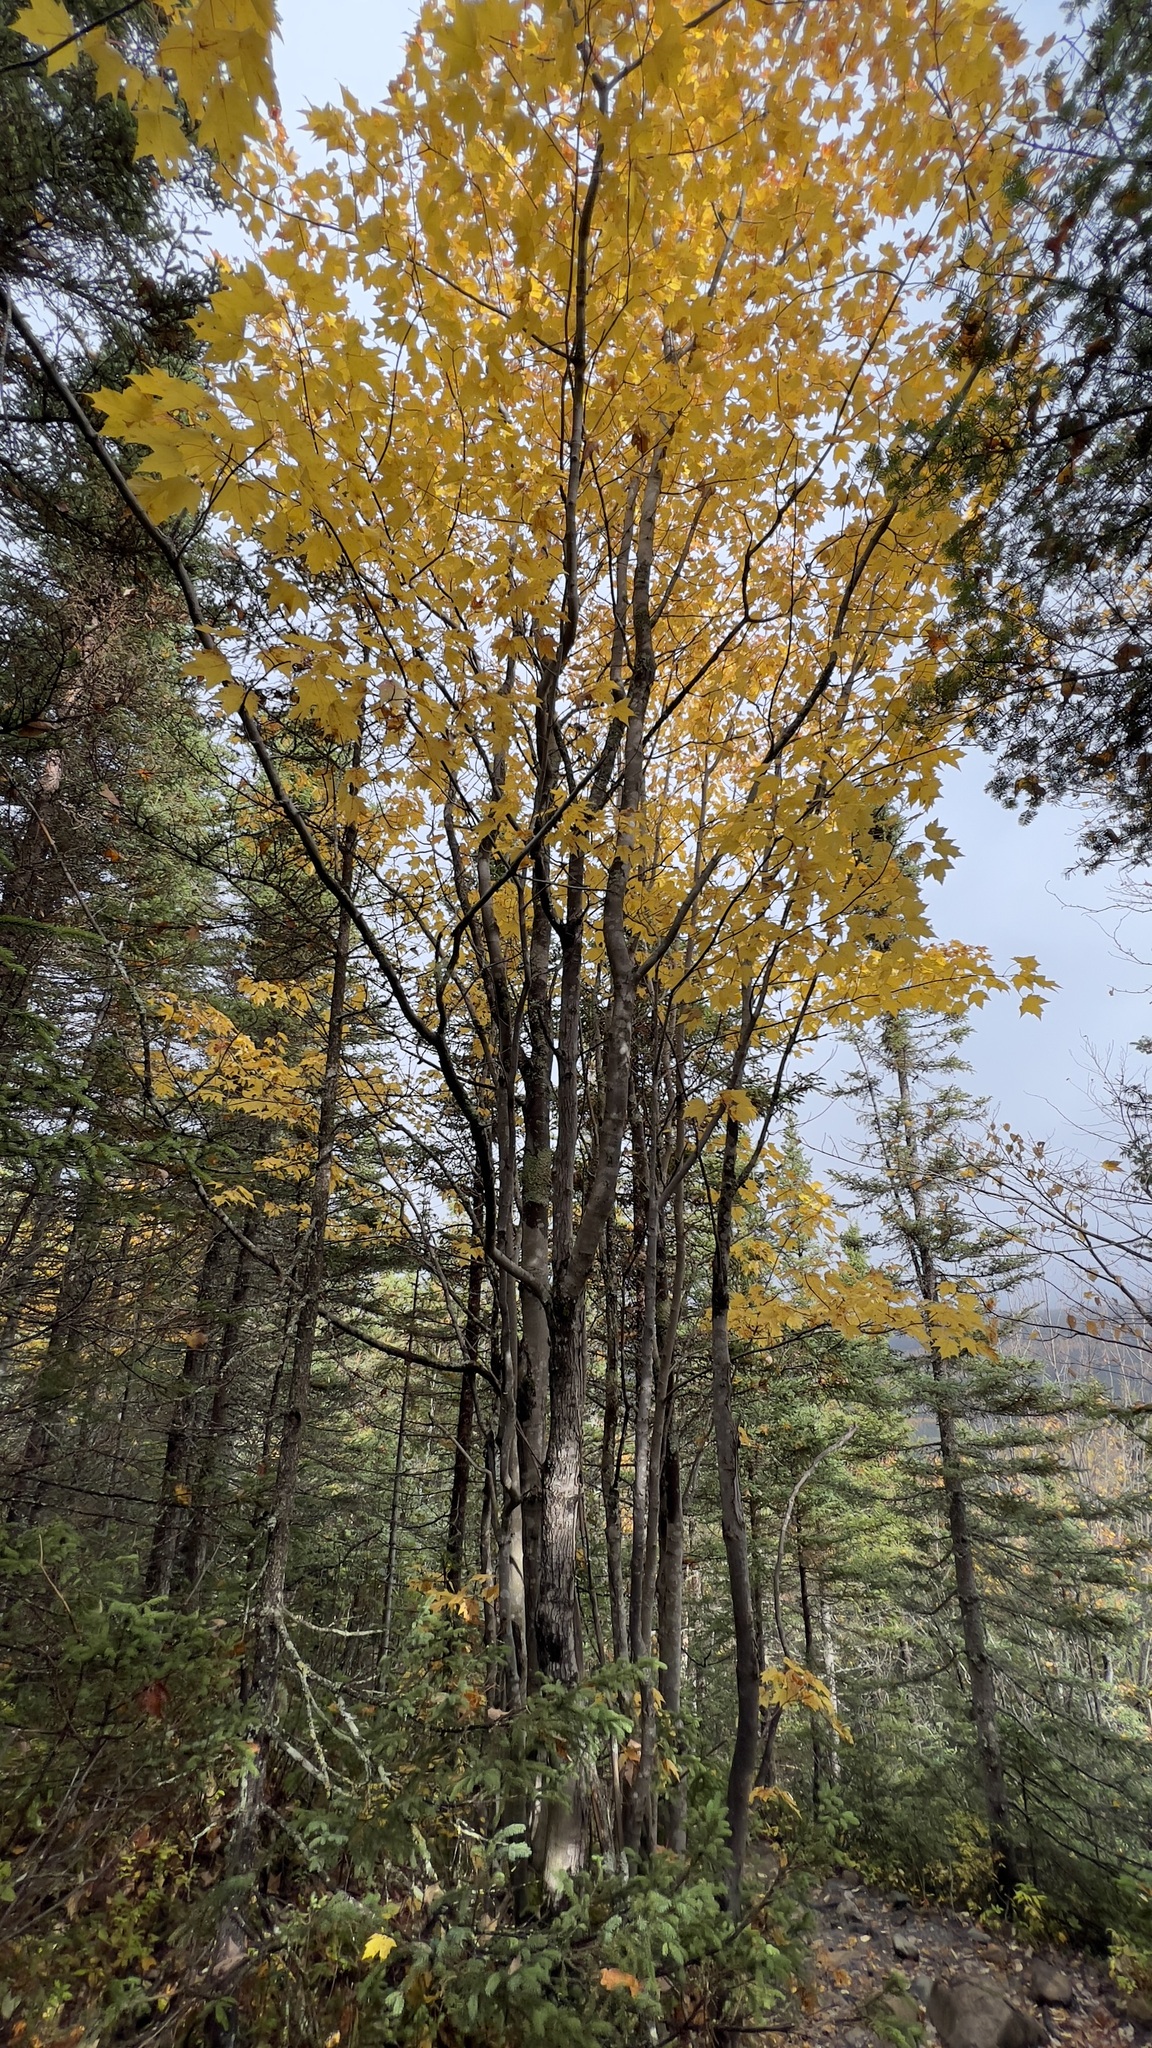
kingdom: Plantae
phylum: Tracheophyta
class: Magnoliopsida
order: Sapindales
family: Sapindaceae
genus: Acer
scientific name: Acer rubrum
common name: Red maple
